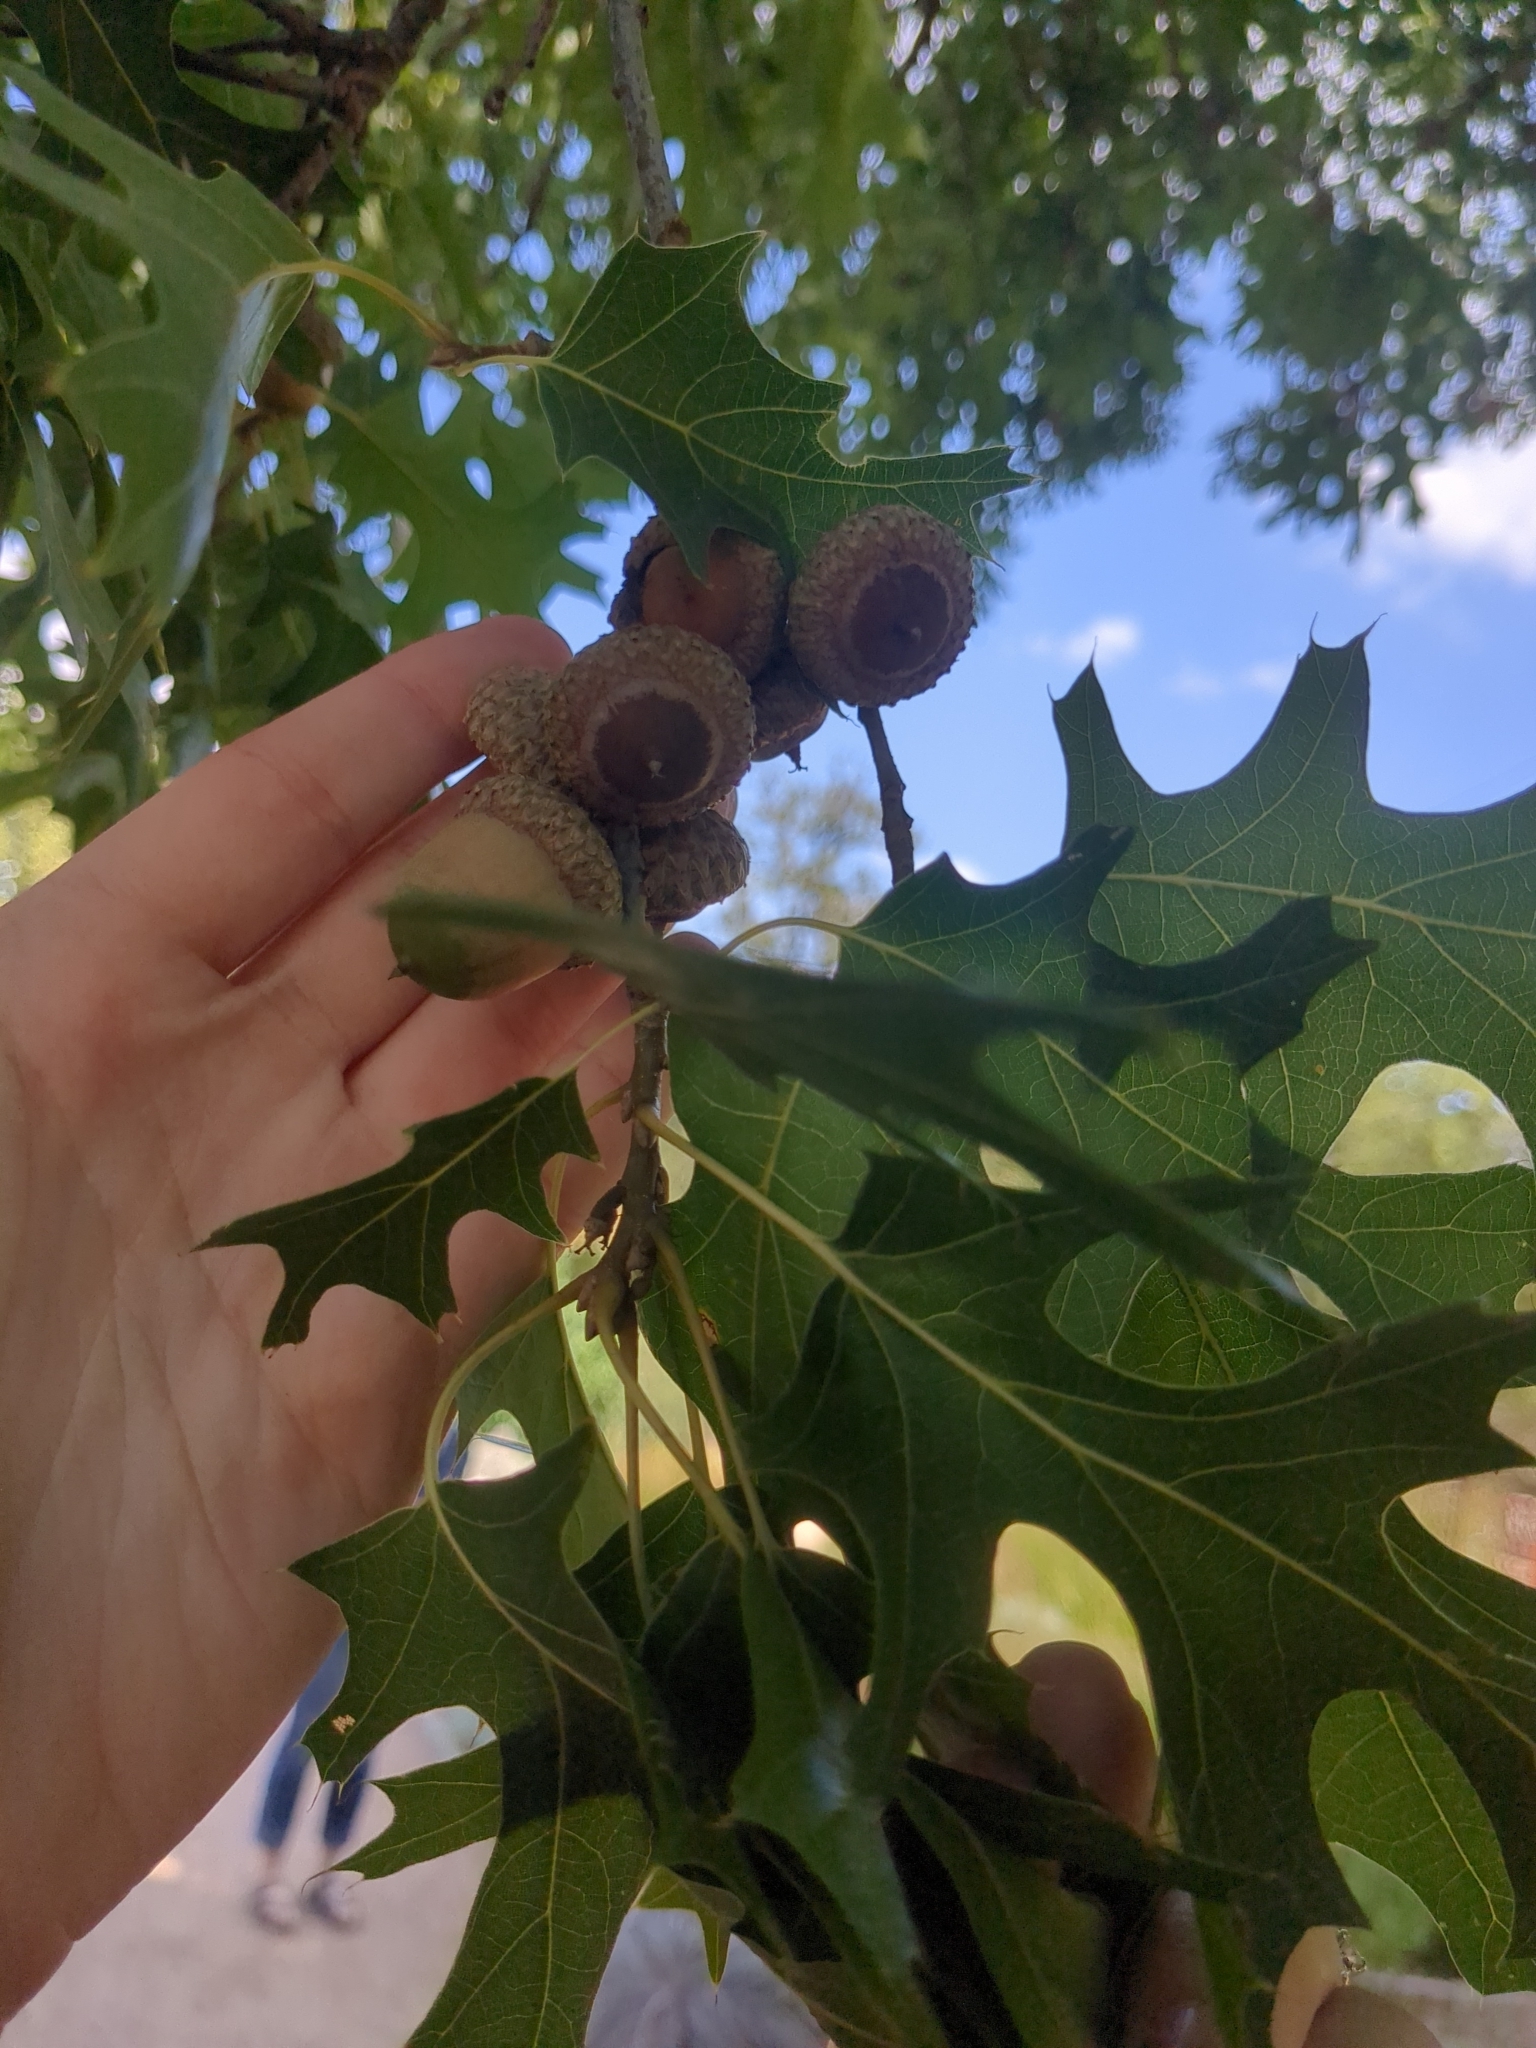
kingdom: Plantae
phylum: Tracheophyta
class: Magnoliopsida
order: Fagales
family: Fagaceae
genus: Quercus
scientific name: Quercus shumardii
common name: Shumard oak
